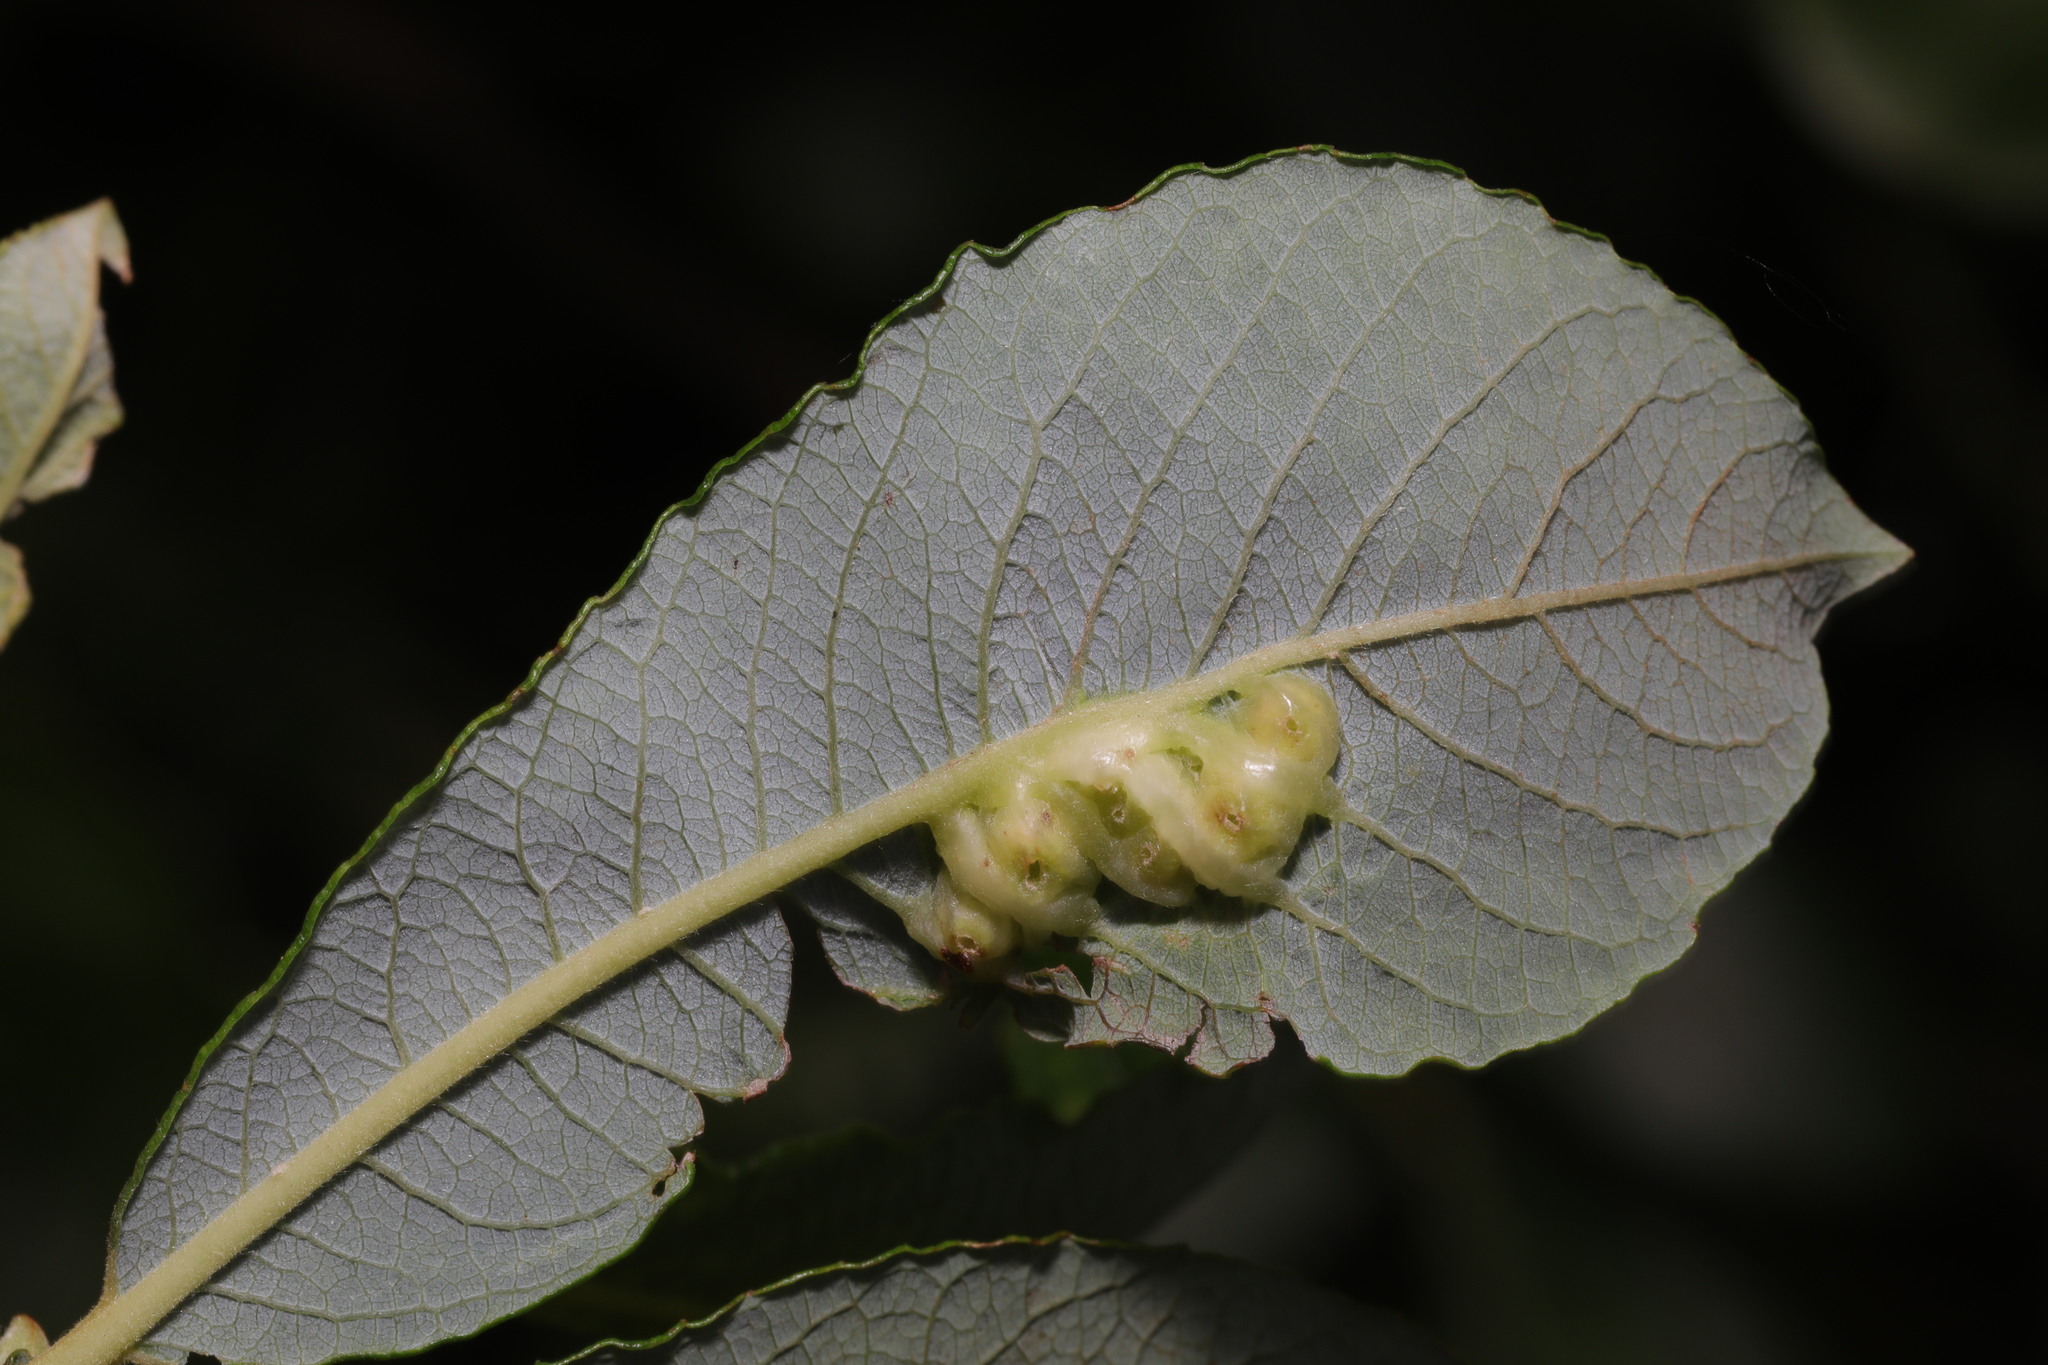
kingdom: Animalia
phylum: Arthropoda
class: Insecta
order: Diptera
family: Cecidomyiidae
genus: Iteomyia
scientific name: Iteomyia major
